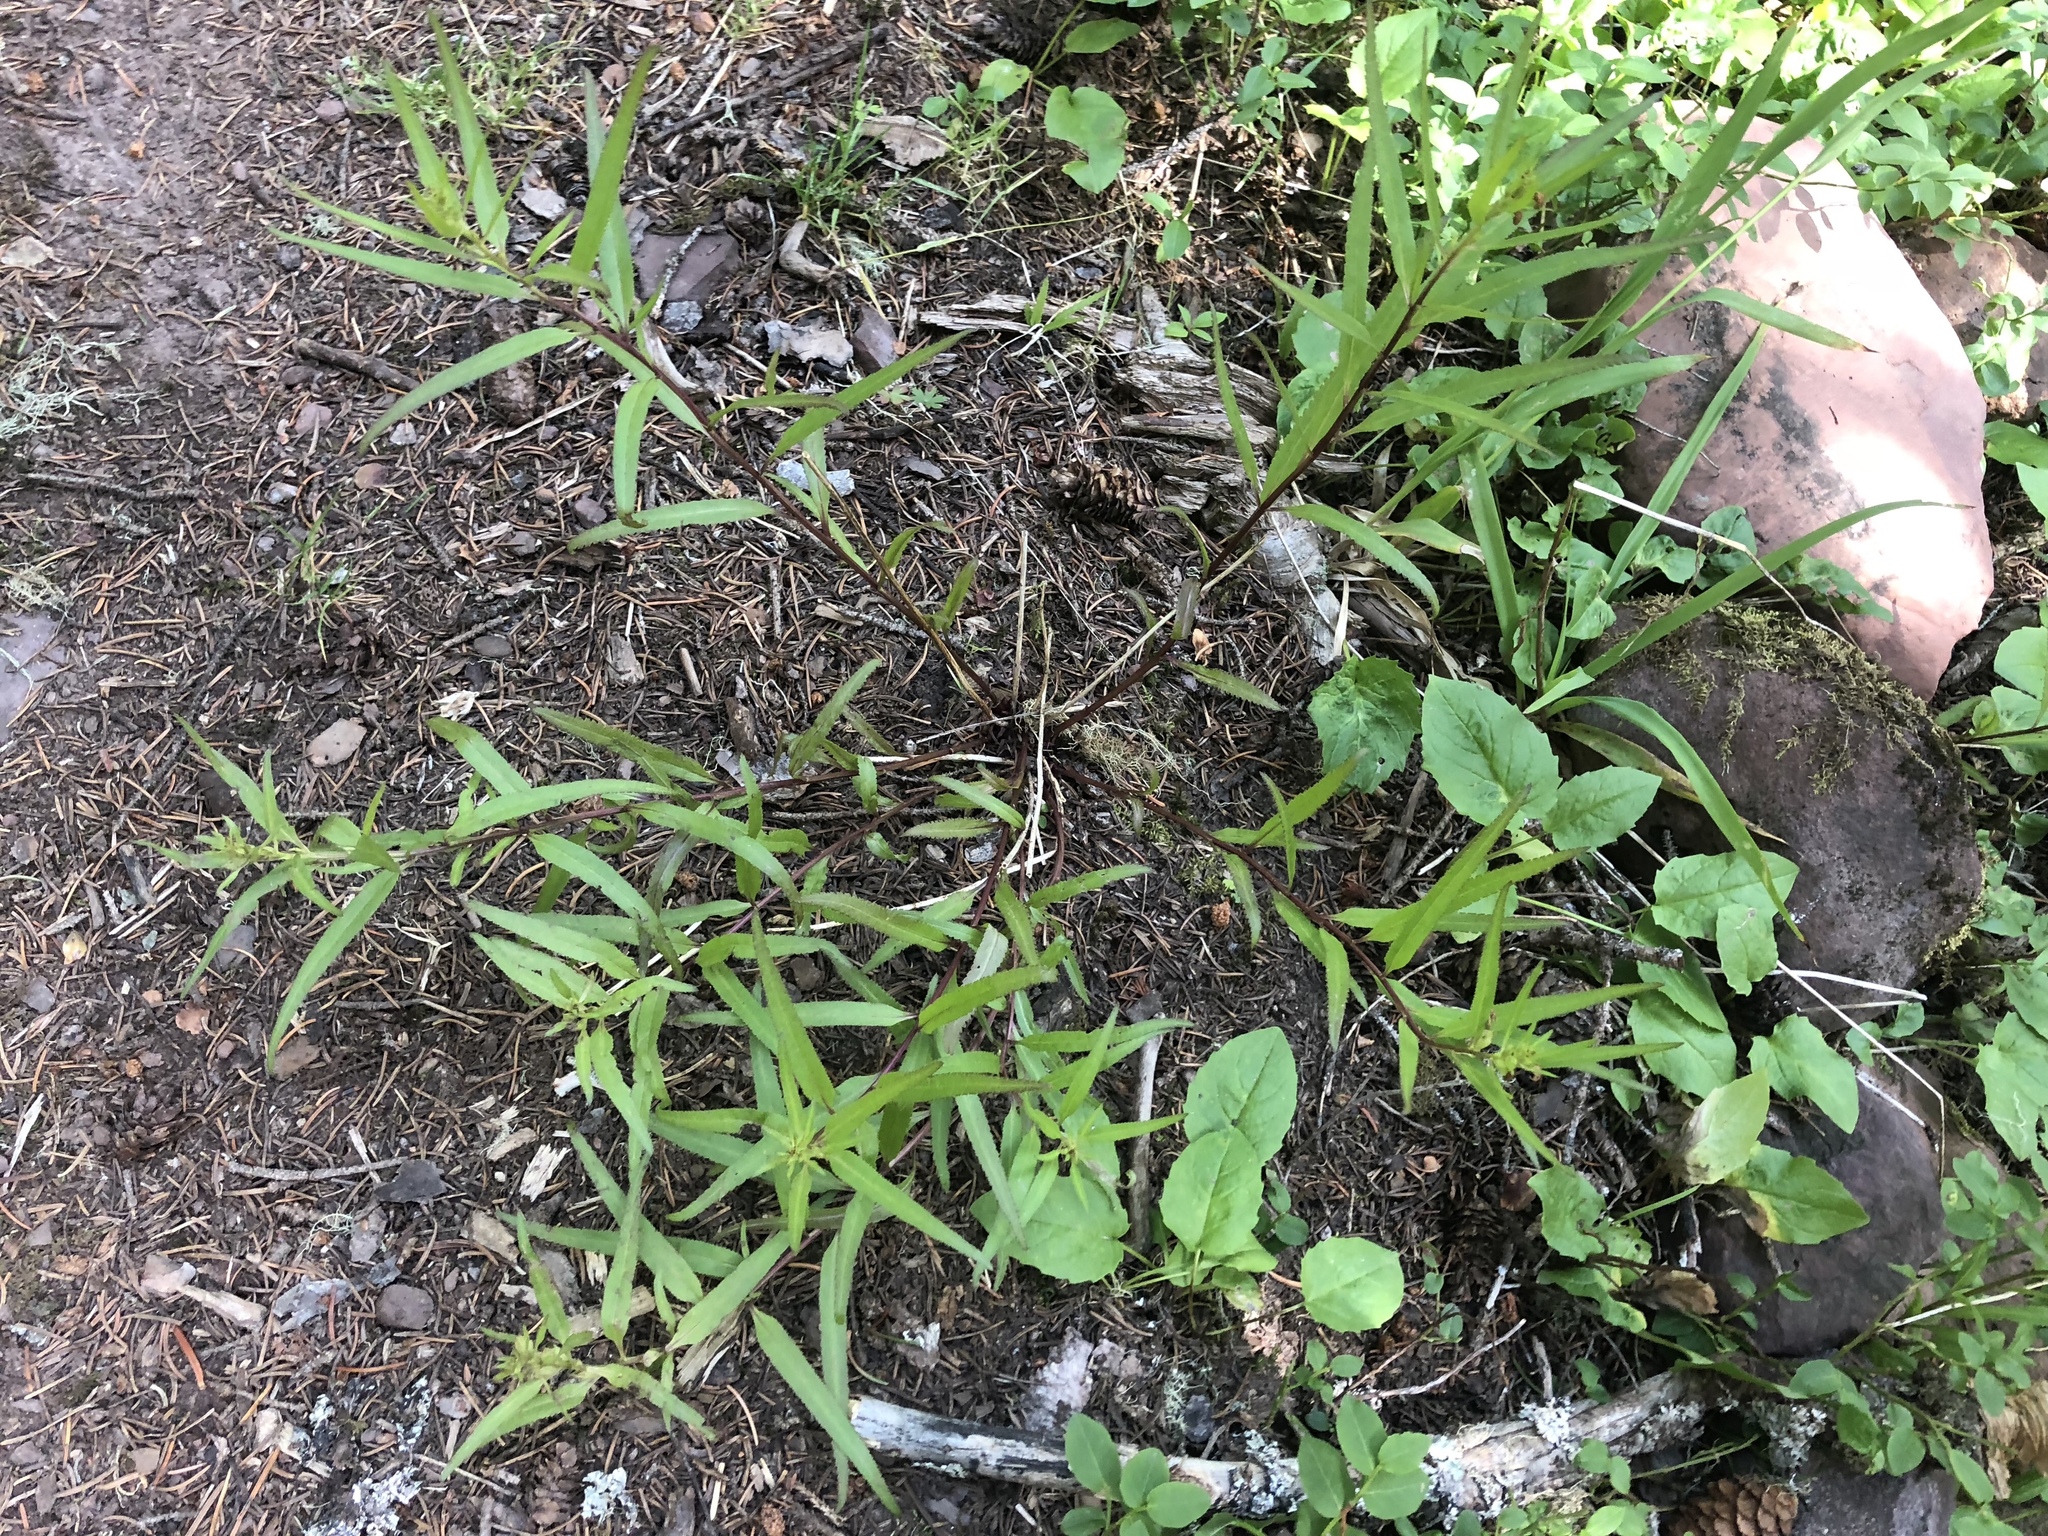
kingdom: Plantae
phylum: Tracheophyta
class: Magnoliopsida
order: Lamiales
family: Orobanchaceae
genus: Pedicularis
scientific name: Pedicularis racemosa
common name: Leafy lousewort
